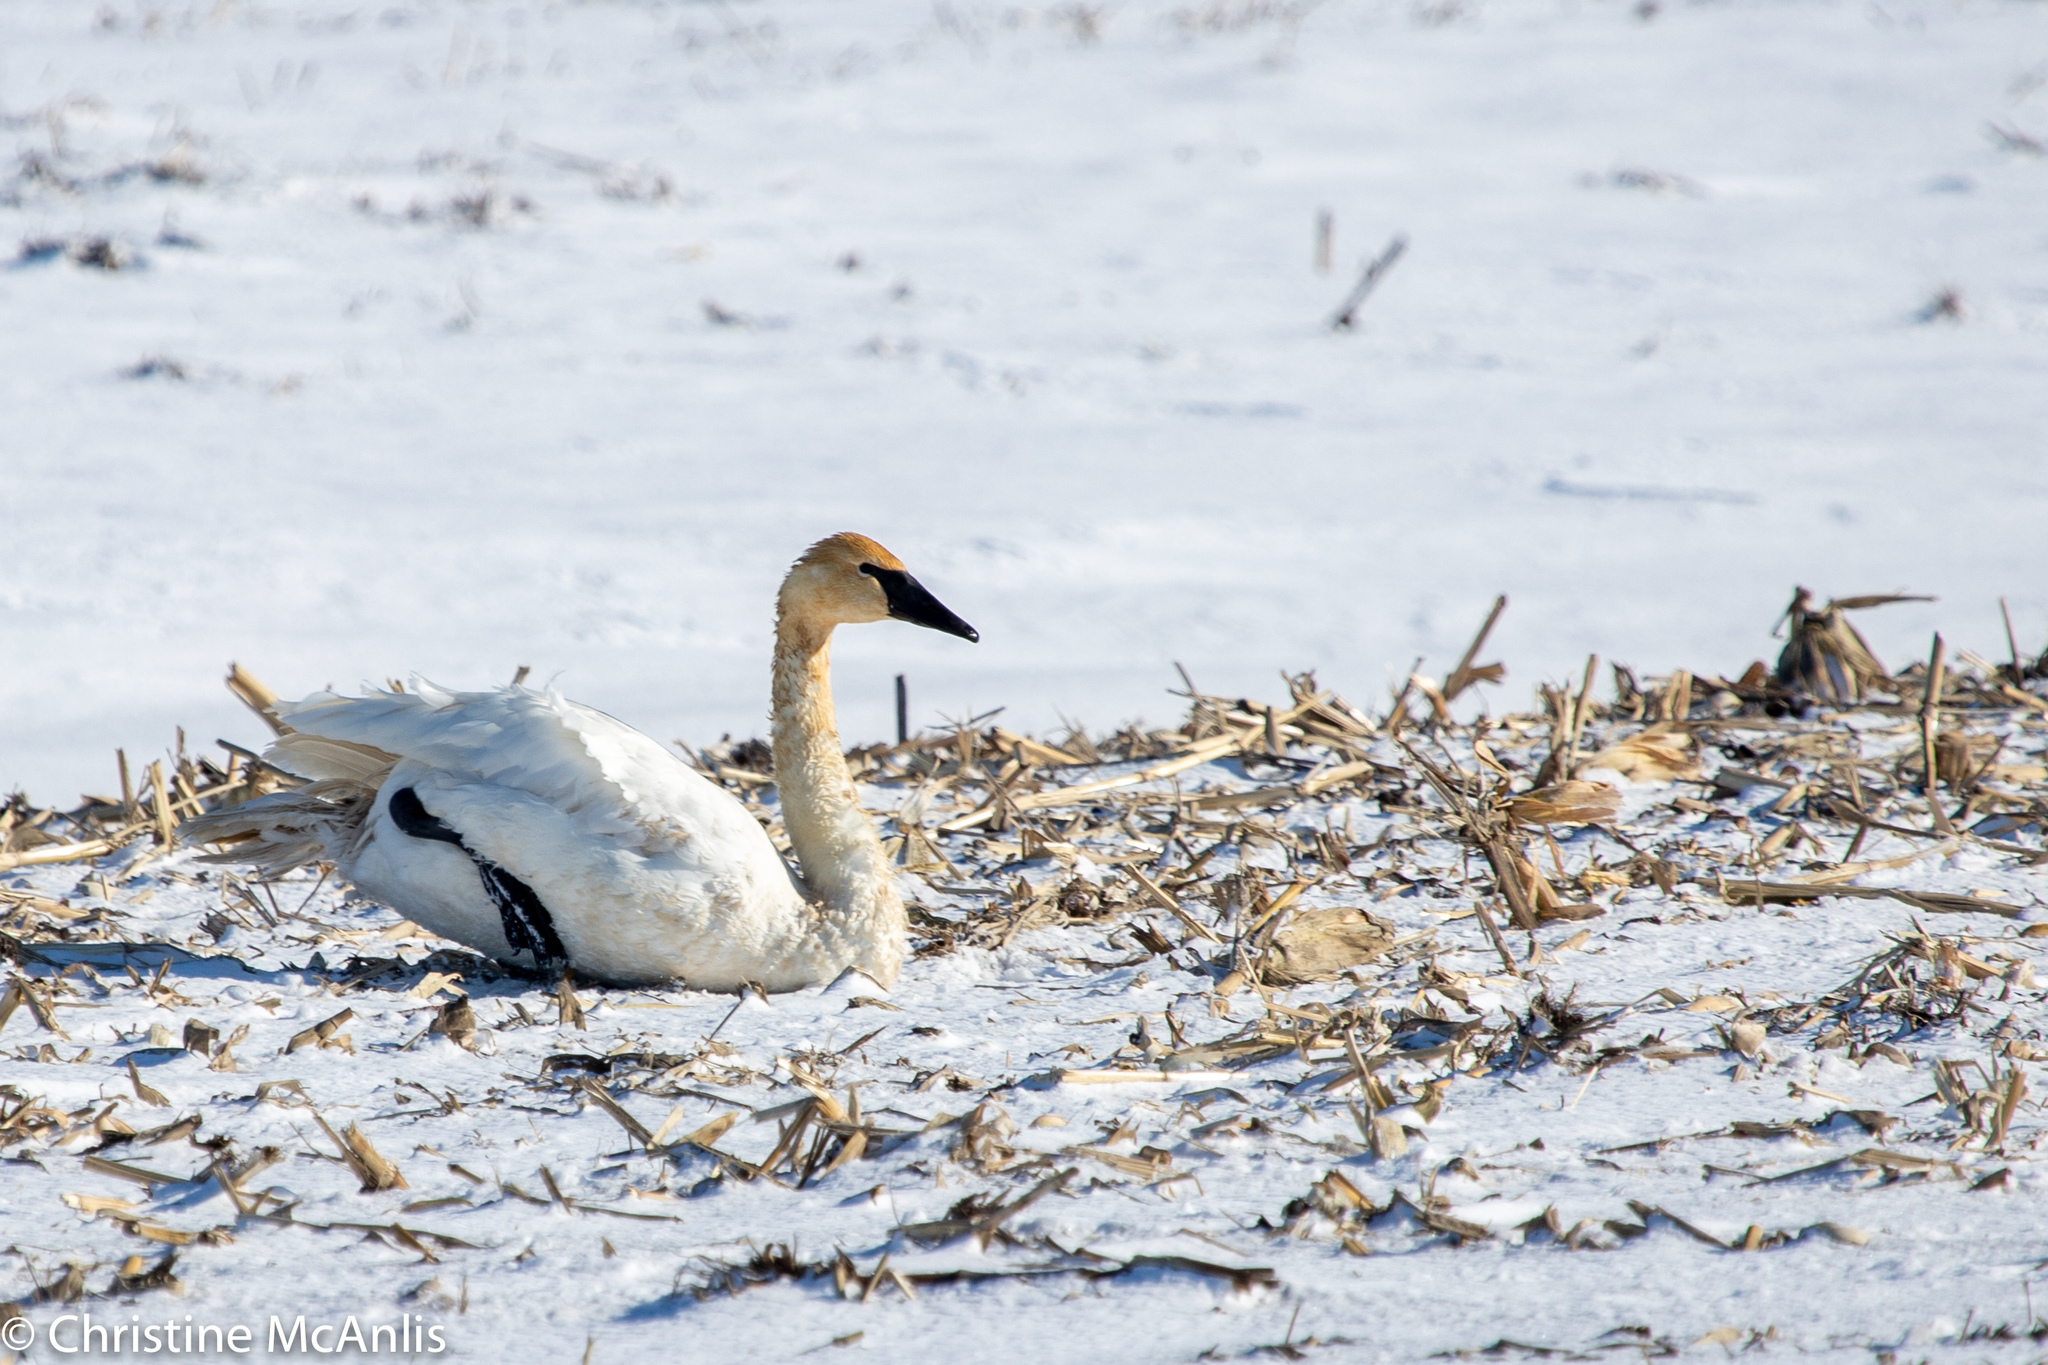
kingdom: Animalia
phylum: Chordata
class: Aves
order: Anseriformes
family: Anatidae
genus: Cygnus
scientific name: Cygnus buccinator
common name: Trumpeter swan
